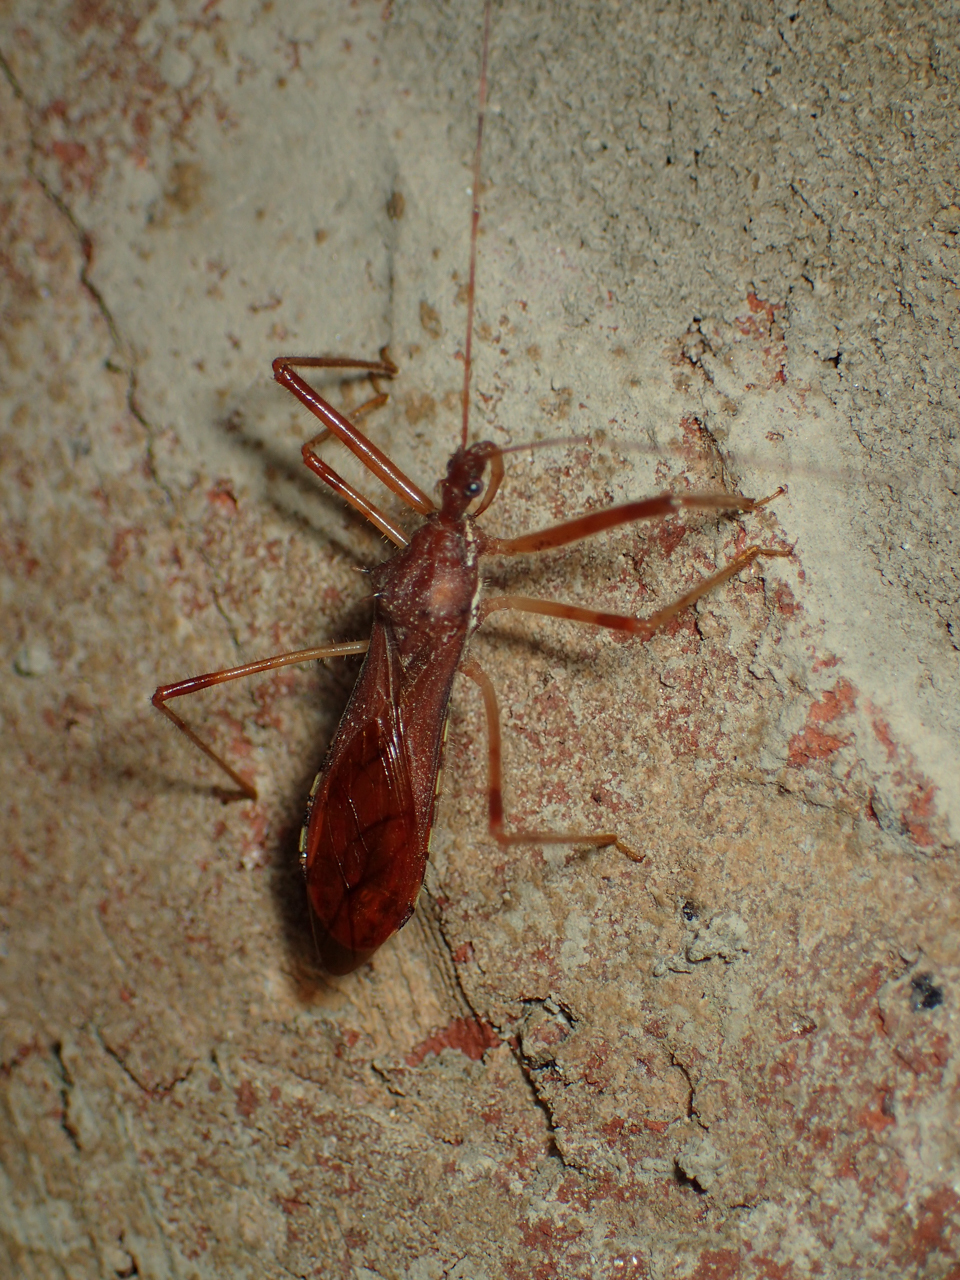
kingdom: Animalia
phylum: Arthropoda
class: Insecta
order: Hemiptera
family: Reduviidae
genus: Rocconota
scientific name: Rocconota annulicornis
